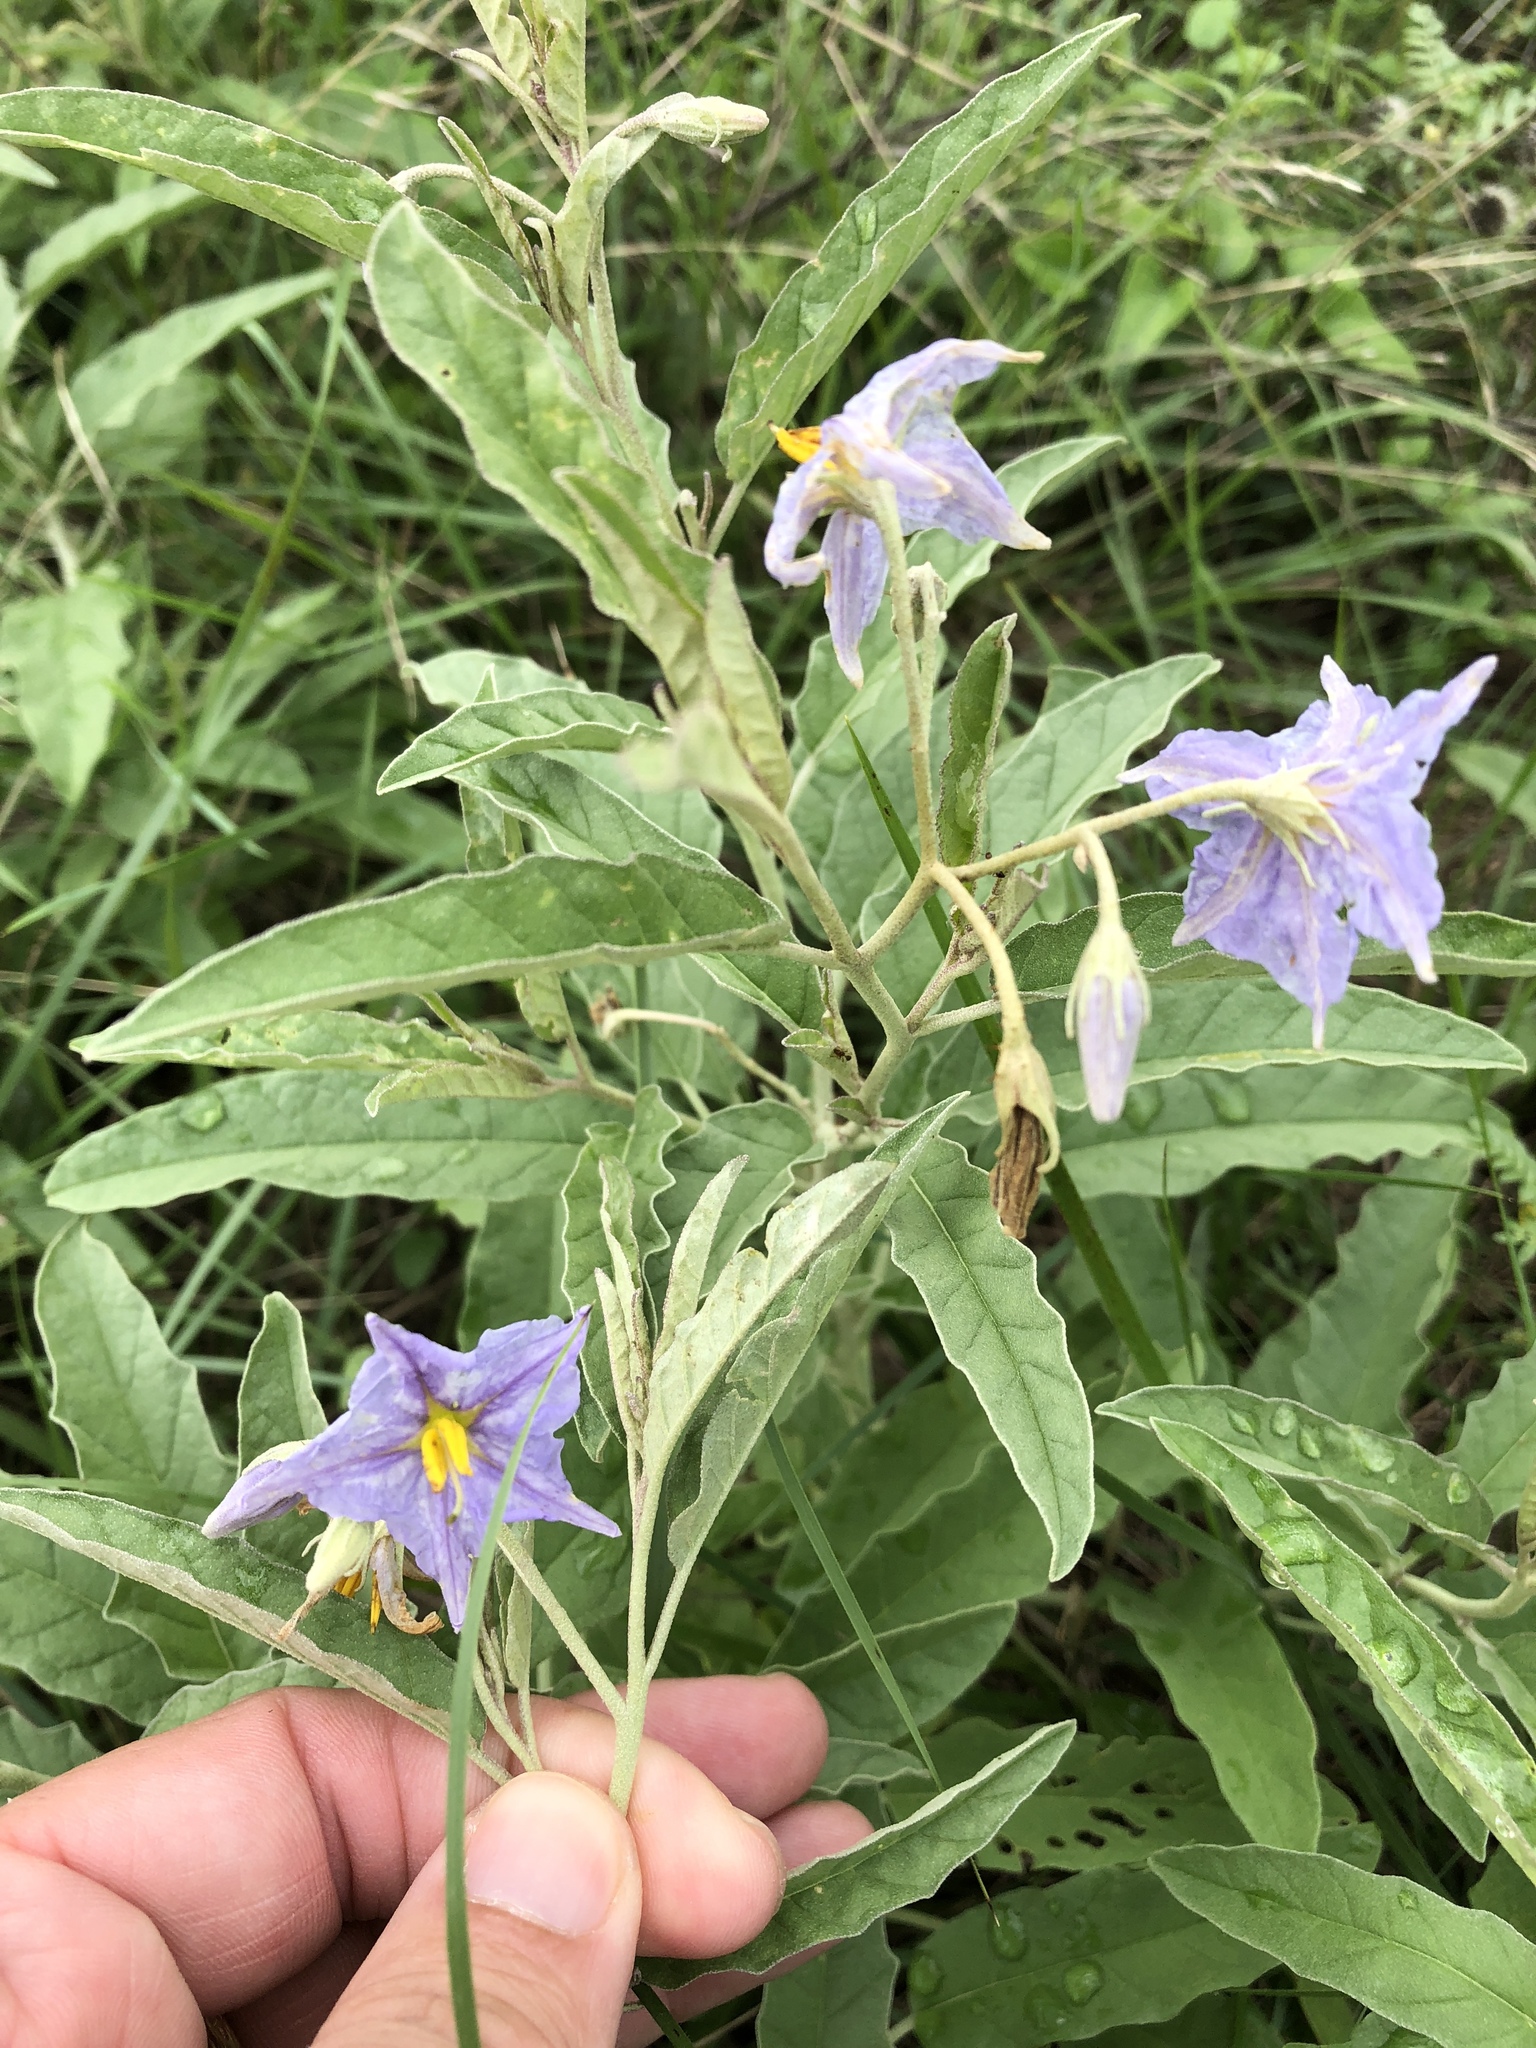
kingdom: Plantae
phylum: Tracheophyta
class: Magnoliopsida
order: Solanales
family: Solanaceae
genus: Solanum
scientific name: Solanum elaeagnifolium
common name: Silverleaf nightshade
